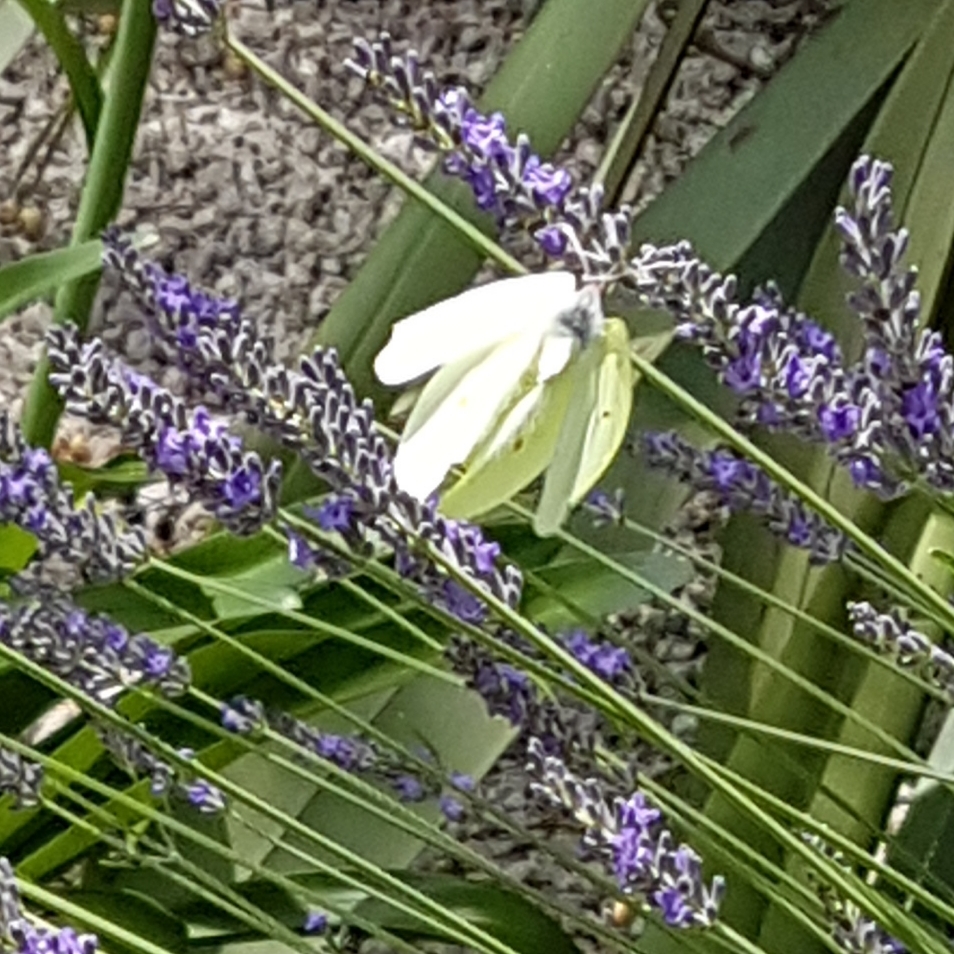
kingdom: Animalia
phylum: Arthropoda
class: Insecta
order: Lepidoptera
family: Pieridae
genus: Gonepteryx
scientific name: Gonepteryx cleopatra
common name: Cleopatra
